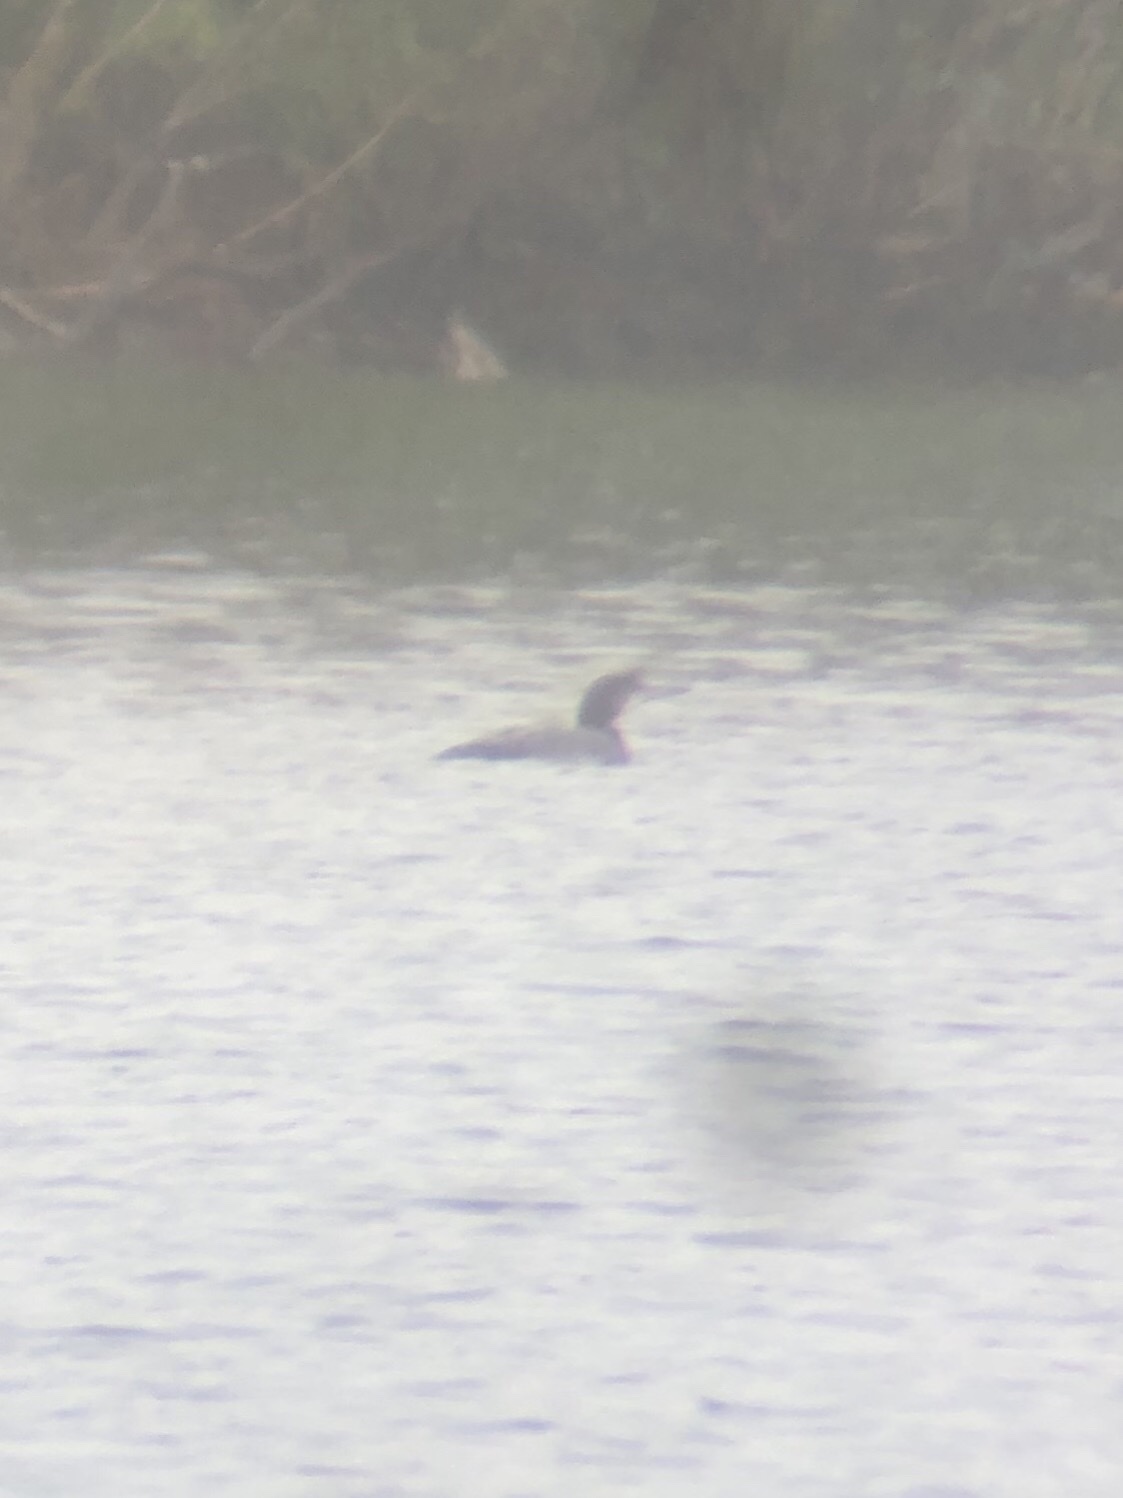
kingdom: Animalia
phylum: Chordata
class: Aves
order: Gaviiformes
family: Gaviidae
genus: Gavia
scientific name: Gavia immer
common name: Common loon
